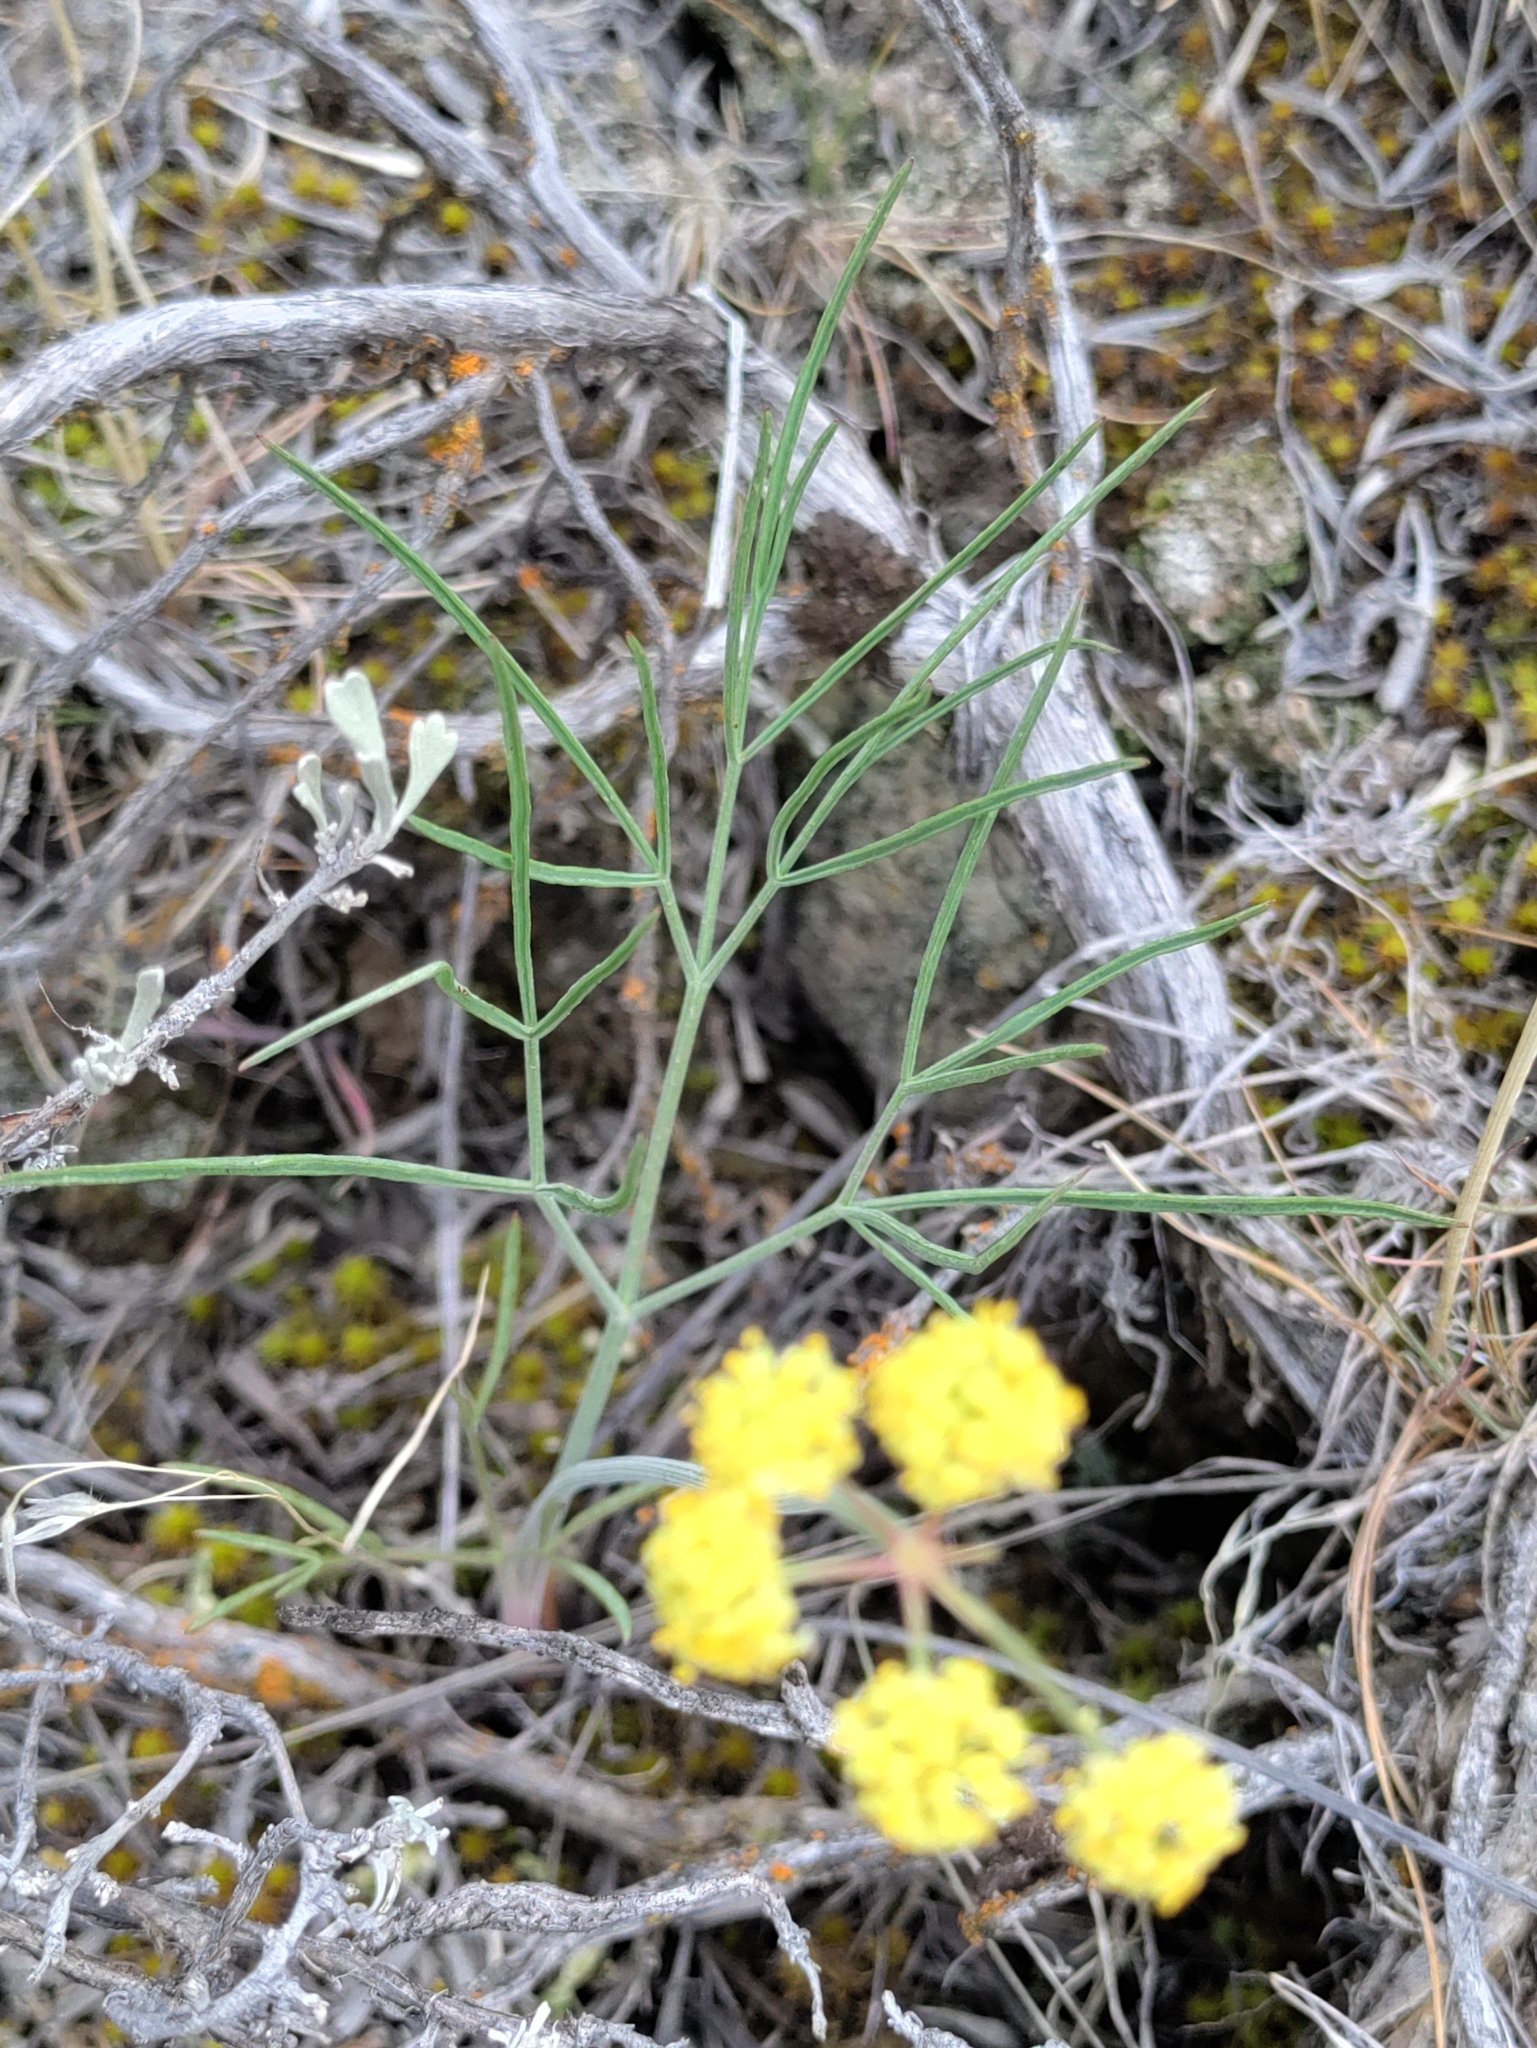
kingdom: Plantae
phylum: Tracheophyta
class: Magnoliopsida
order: Apiales
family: Apiaceae
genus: Lomatium
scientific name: Lomatium triternatum
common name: Ternate lomatium
